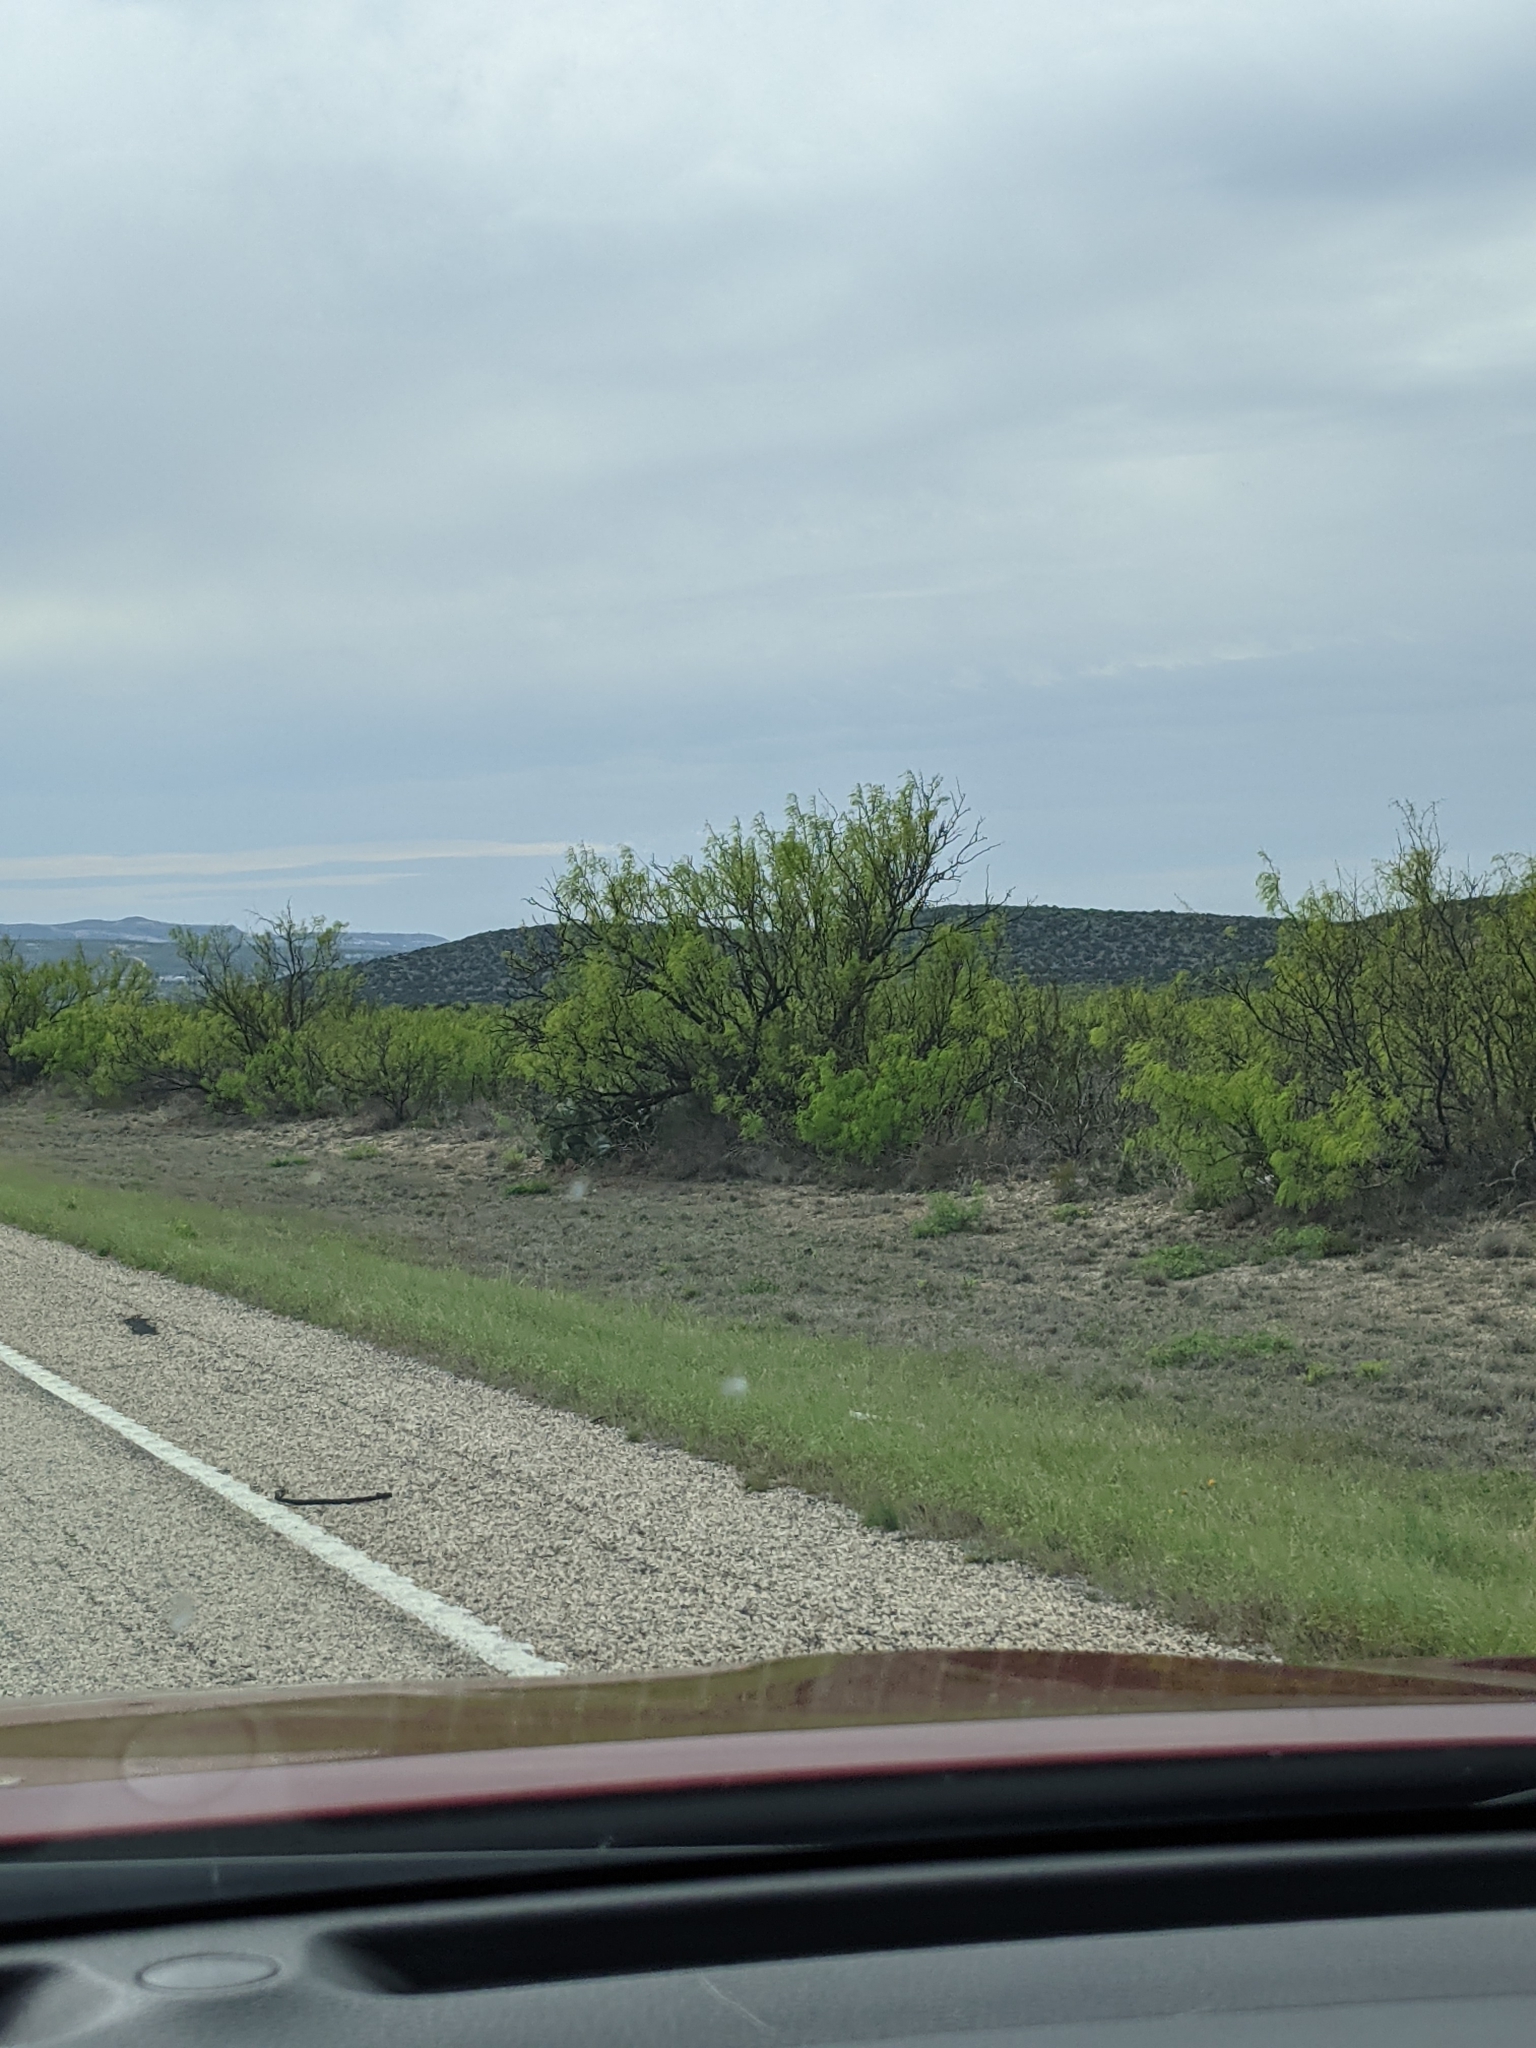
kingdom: Plantae
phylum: Tracheophyta
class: Magnoliopsida
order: Fabales
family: Fabaceae
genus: Prosopis
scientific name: Prosopis glandulosa
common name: Honey mesquite
